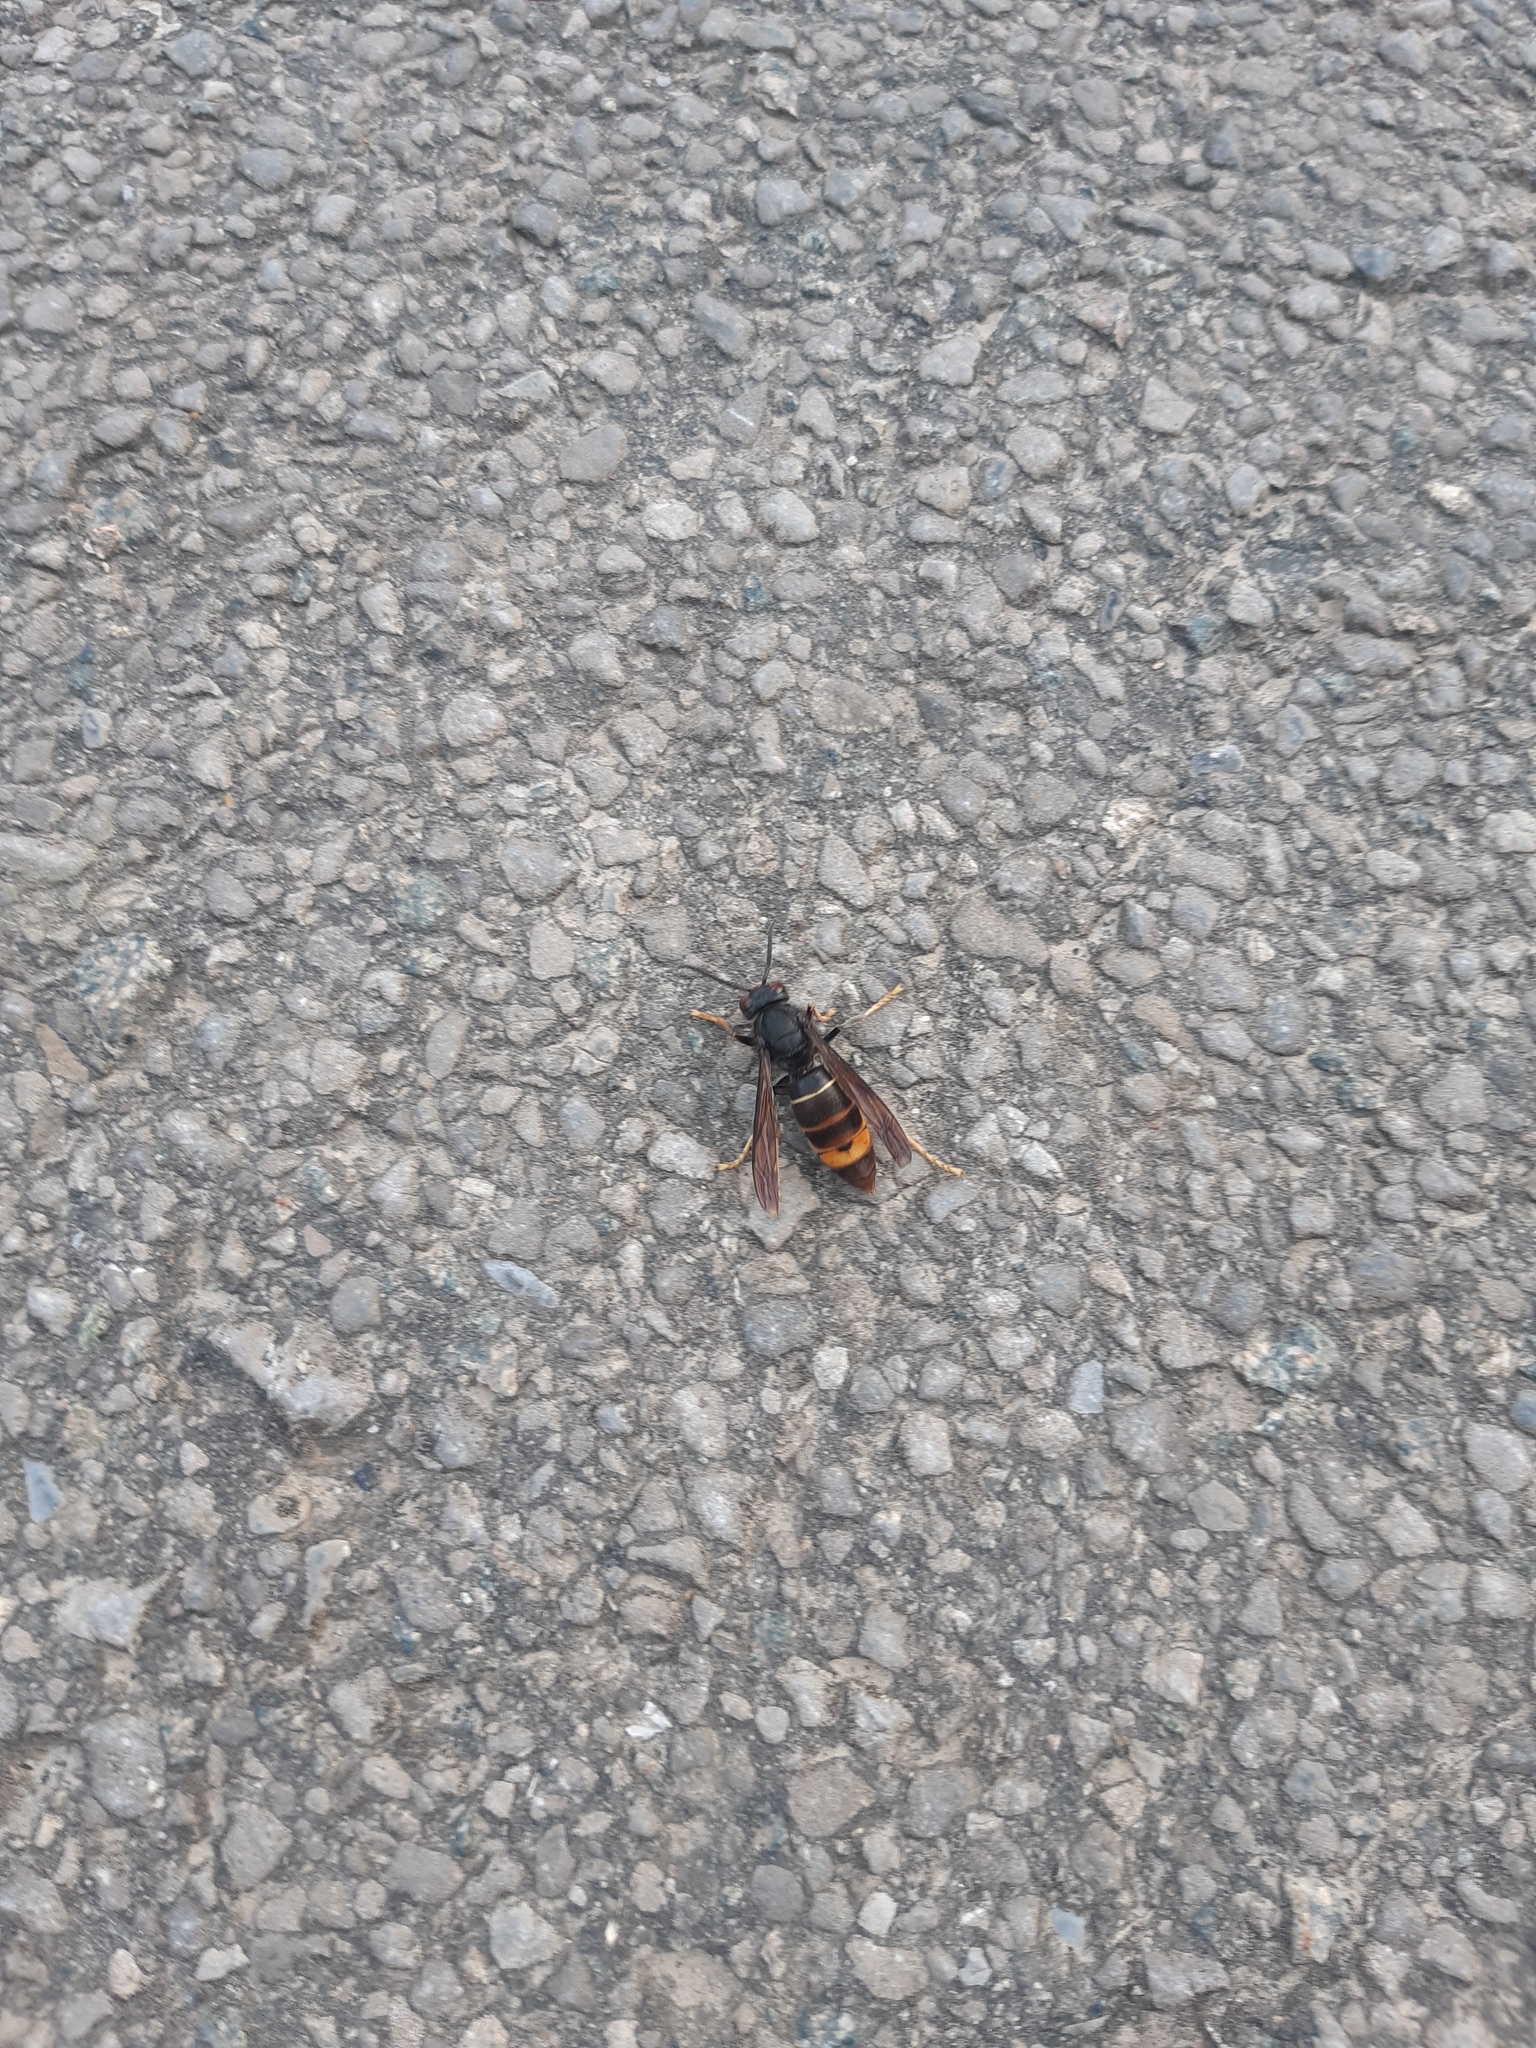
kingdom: Animalia
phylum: Arthropoda
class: Insecta
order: Hymenoptera
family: Vespidae
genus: Vespa
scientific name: Vespa velutina
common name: Asian hornet
